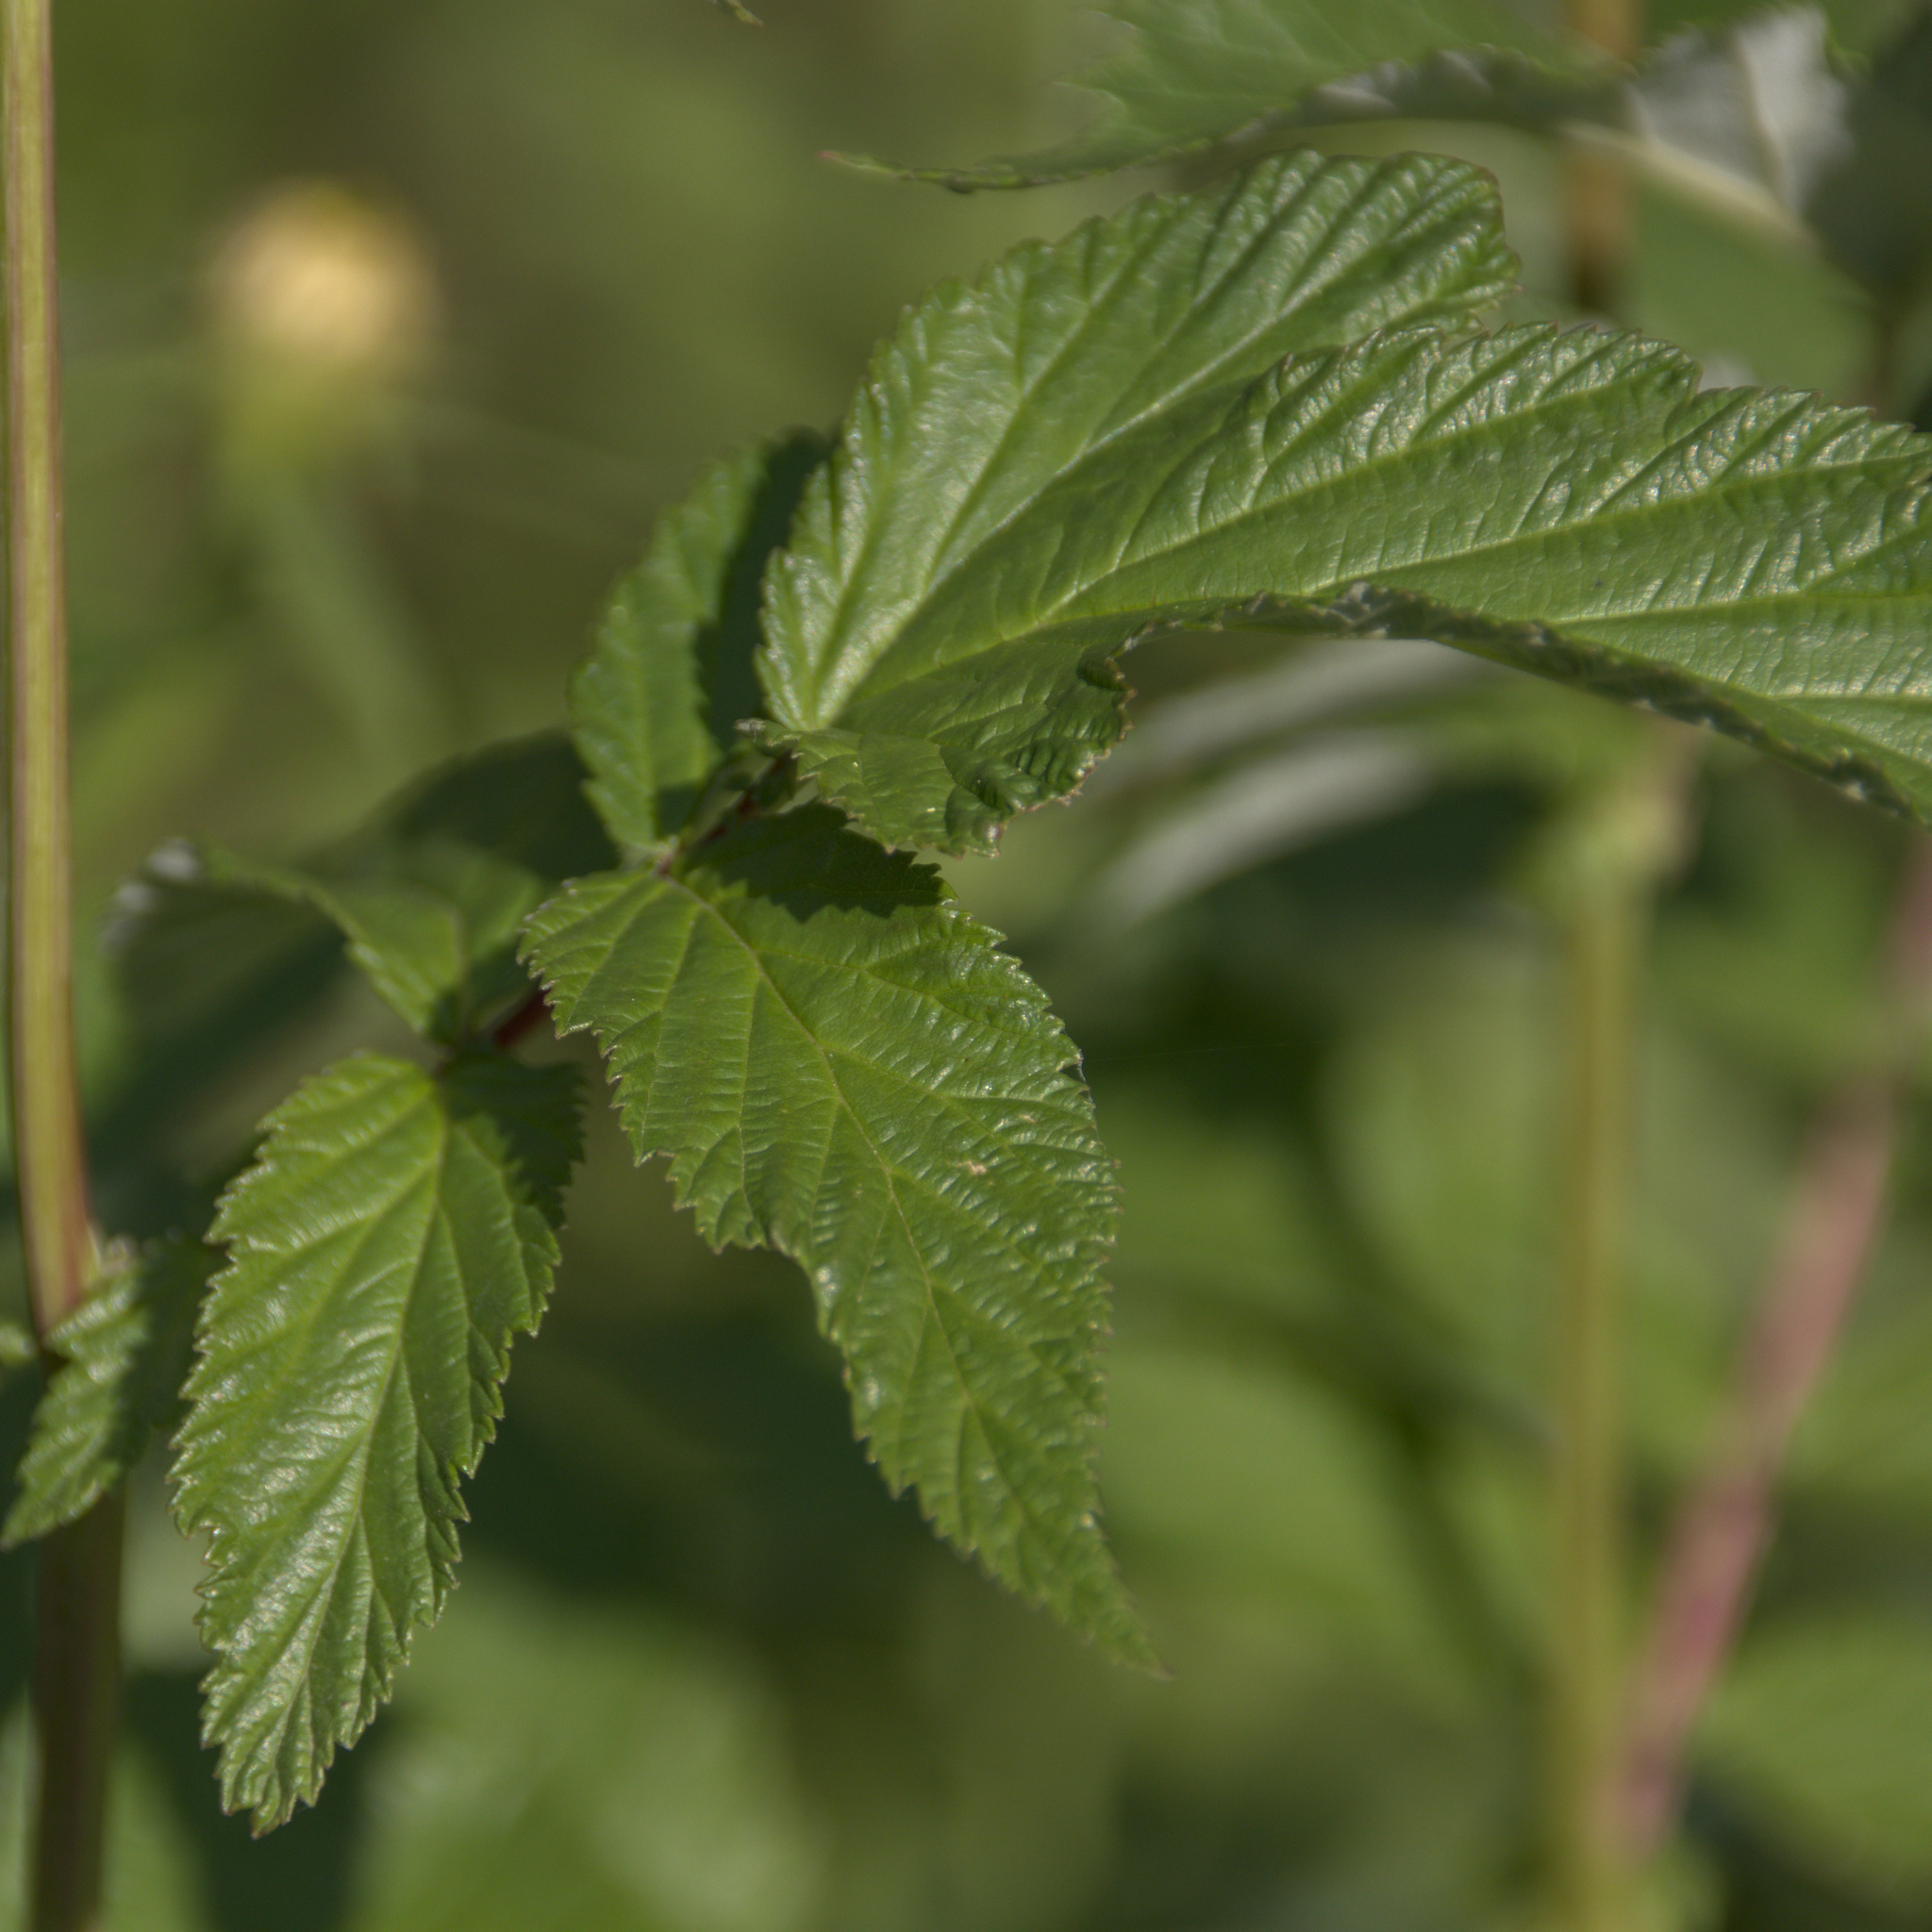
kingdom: Plantae
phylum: Tracheophyta
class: Magnoliopsida
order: Rosales
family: Rosaceae
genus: Filipendula
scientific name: Filipendula ulmaria
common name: Meadowsweet
